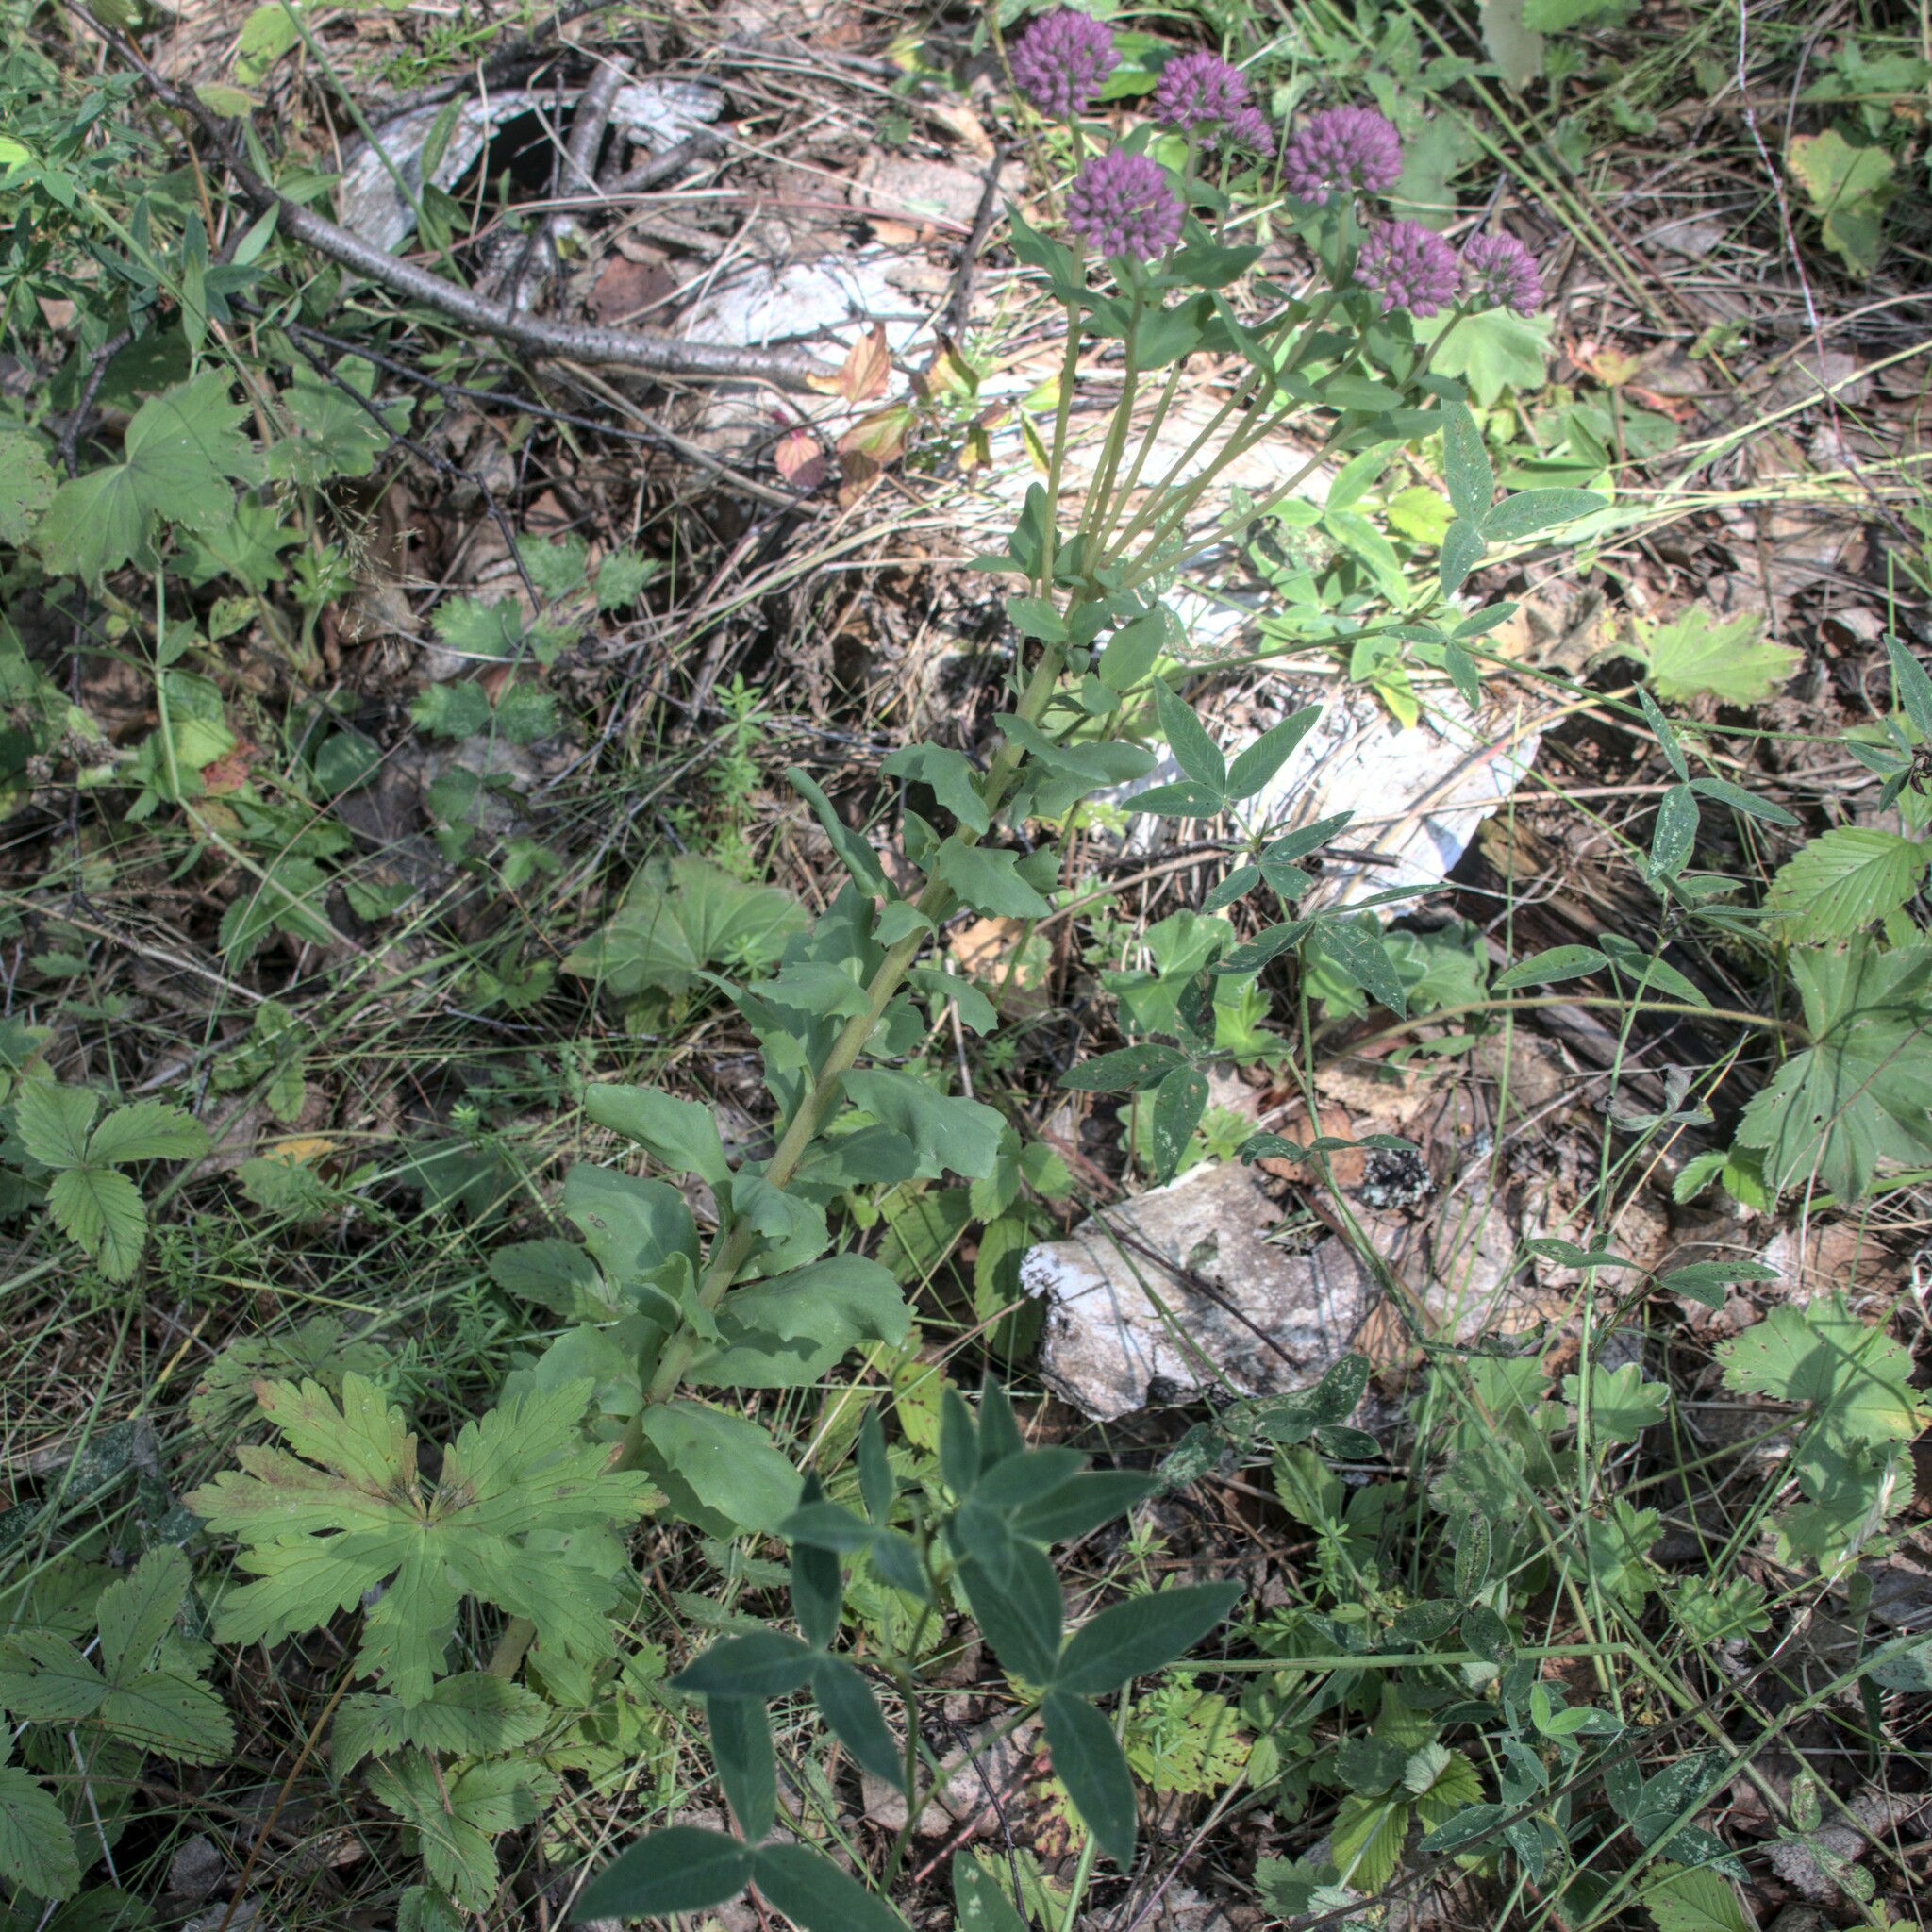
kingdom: Plantae
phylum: Tracheophyta
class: Magnoliopsida
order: Saxifragales
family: Crassulaceae
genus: Hylotelephium
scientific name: Hylotelephium telephium
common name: Live-forever
